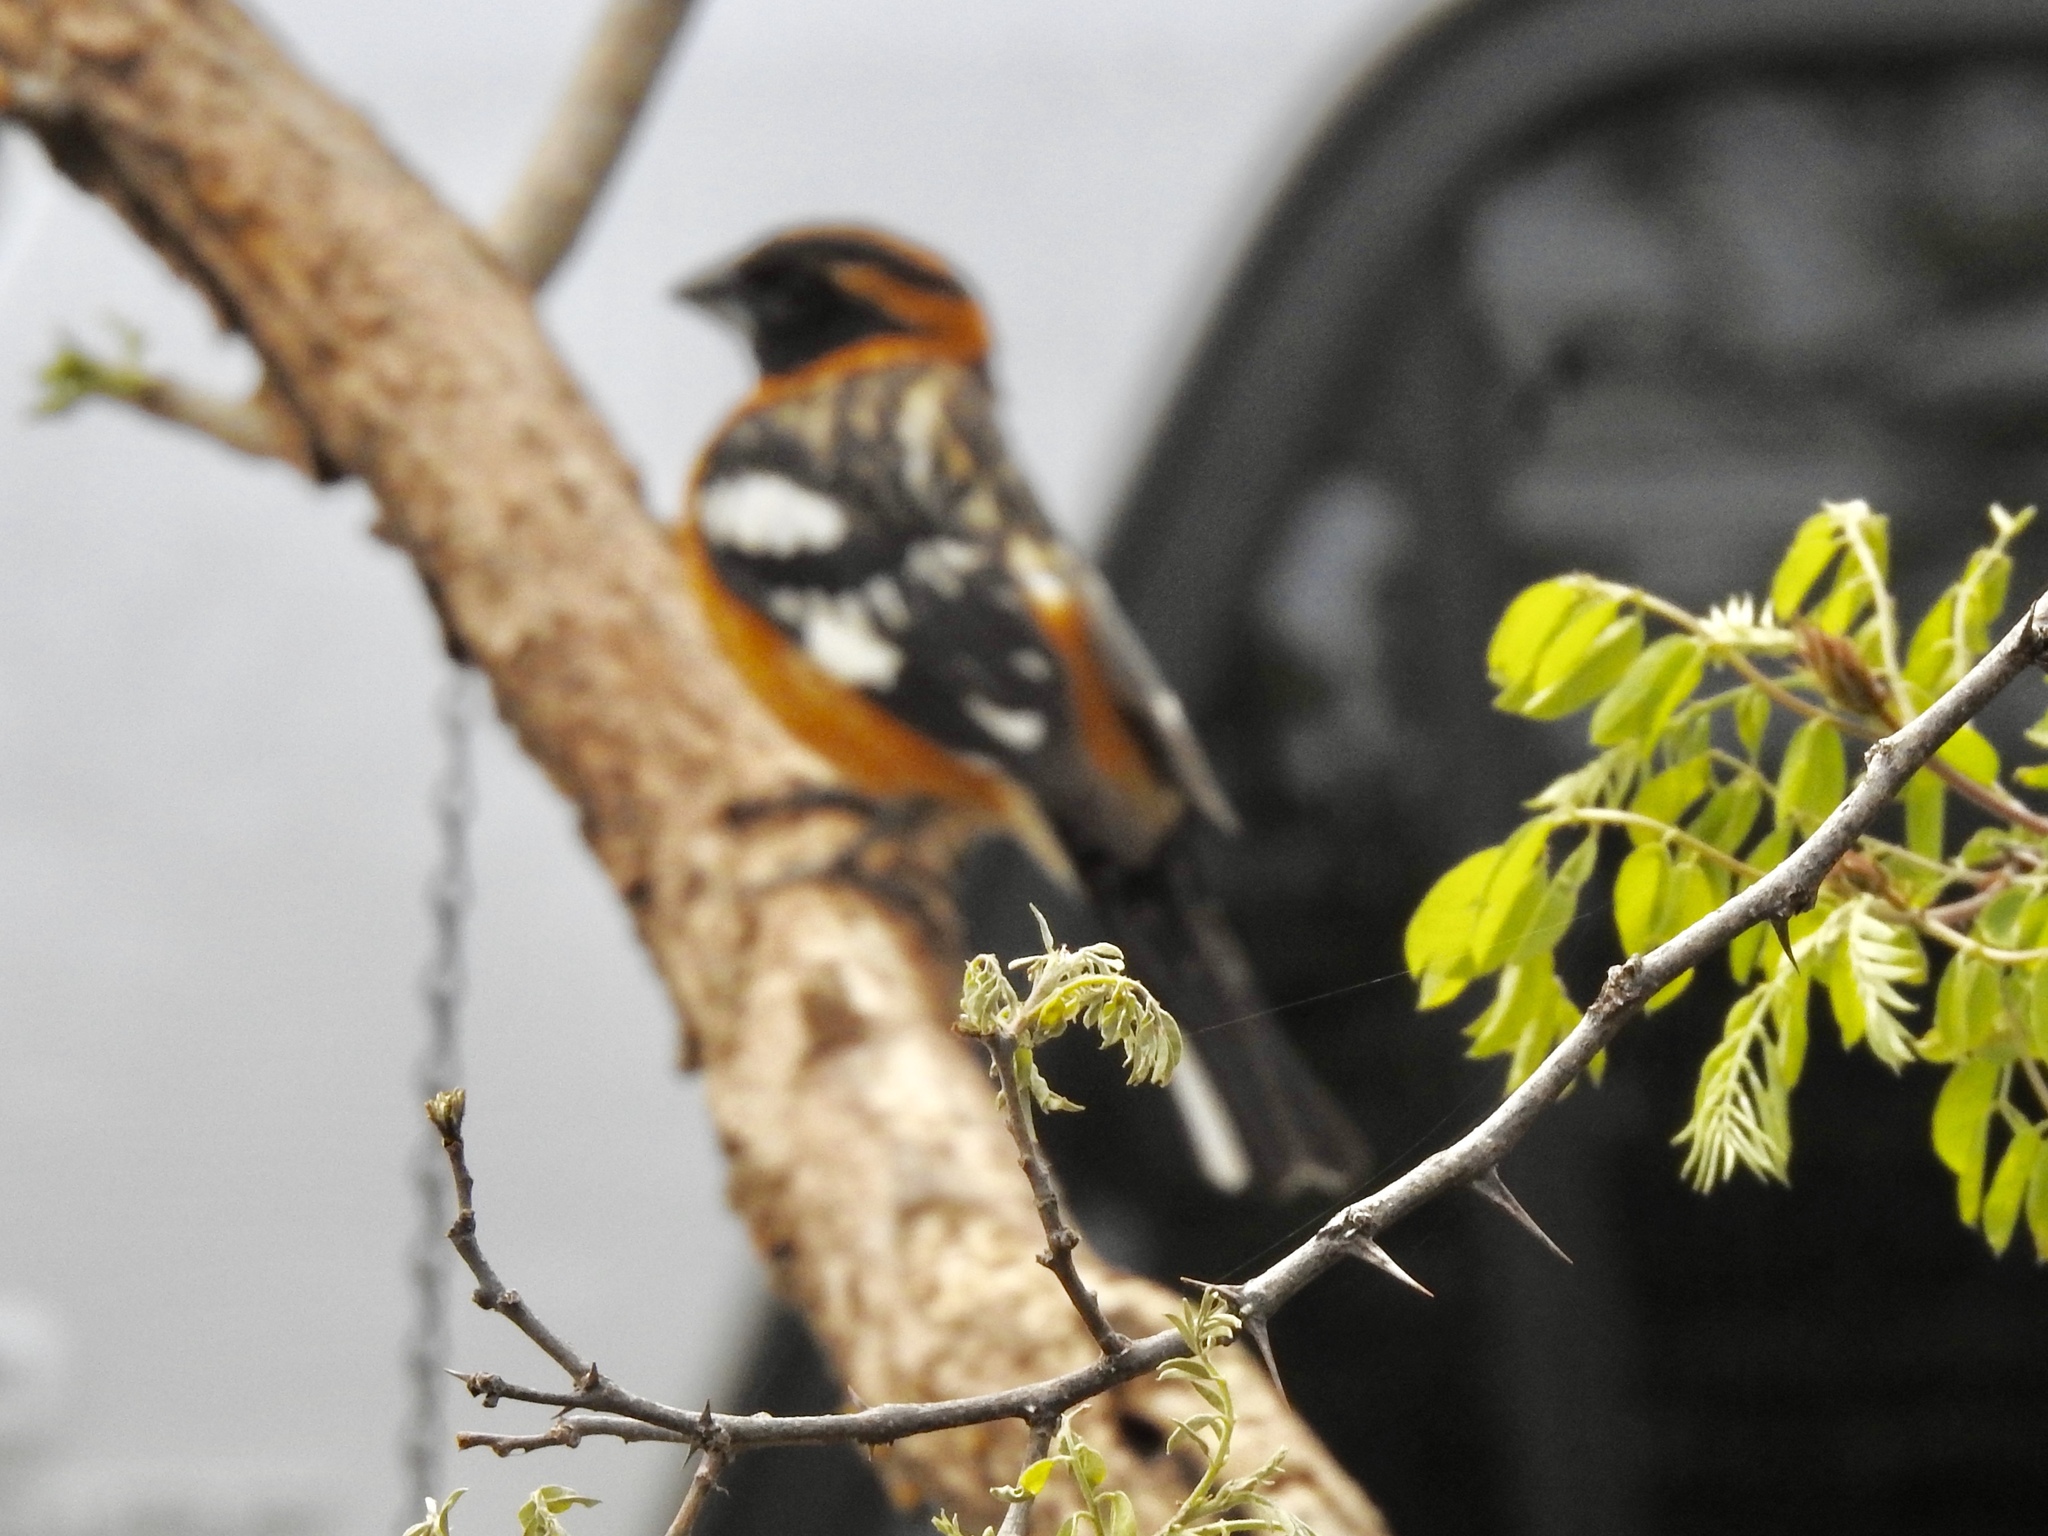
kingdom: Animalia
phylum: Chordata
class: Aves
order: Passeriformes
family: Cardinalidae
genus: Pheucticus
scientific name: Pheucticus melanocephalus
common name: Black-headed grosbeak
